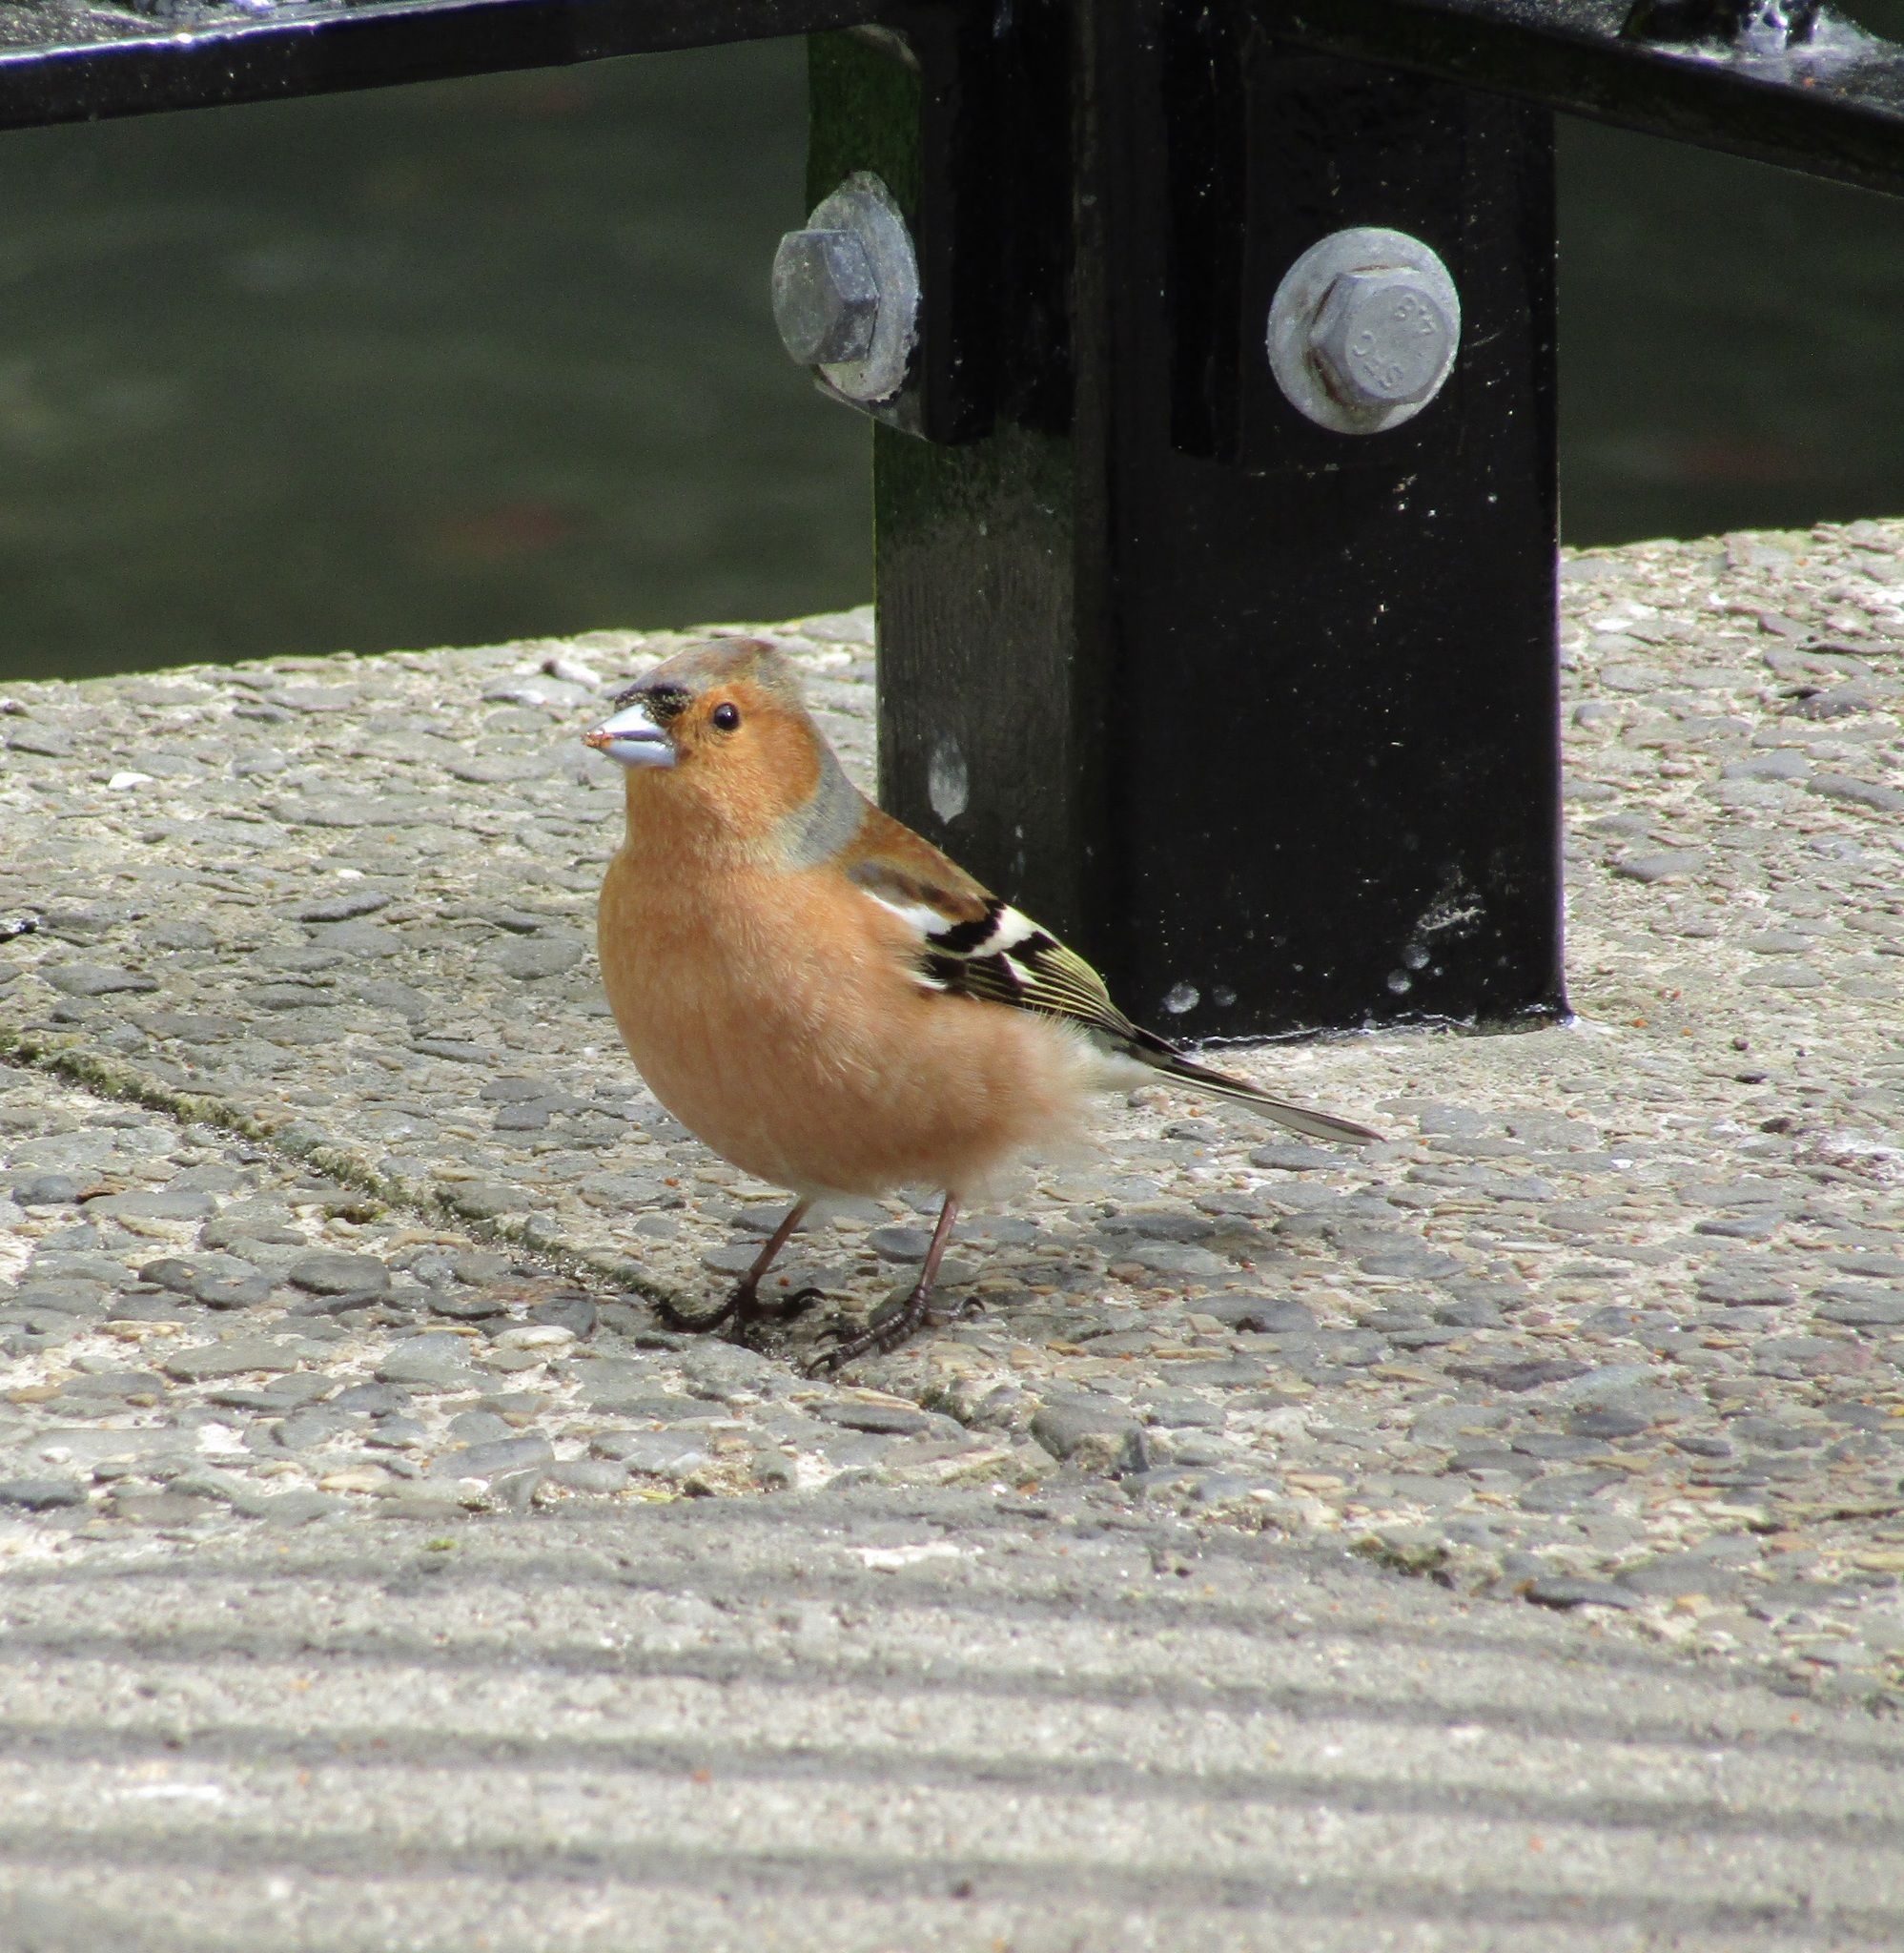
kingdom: Animalia
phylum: Chordata
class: Aves
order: Passeriformes
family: Fringillidae
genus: Fringilla
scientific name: Fringilla coelebs
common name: Common chaffinch
